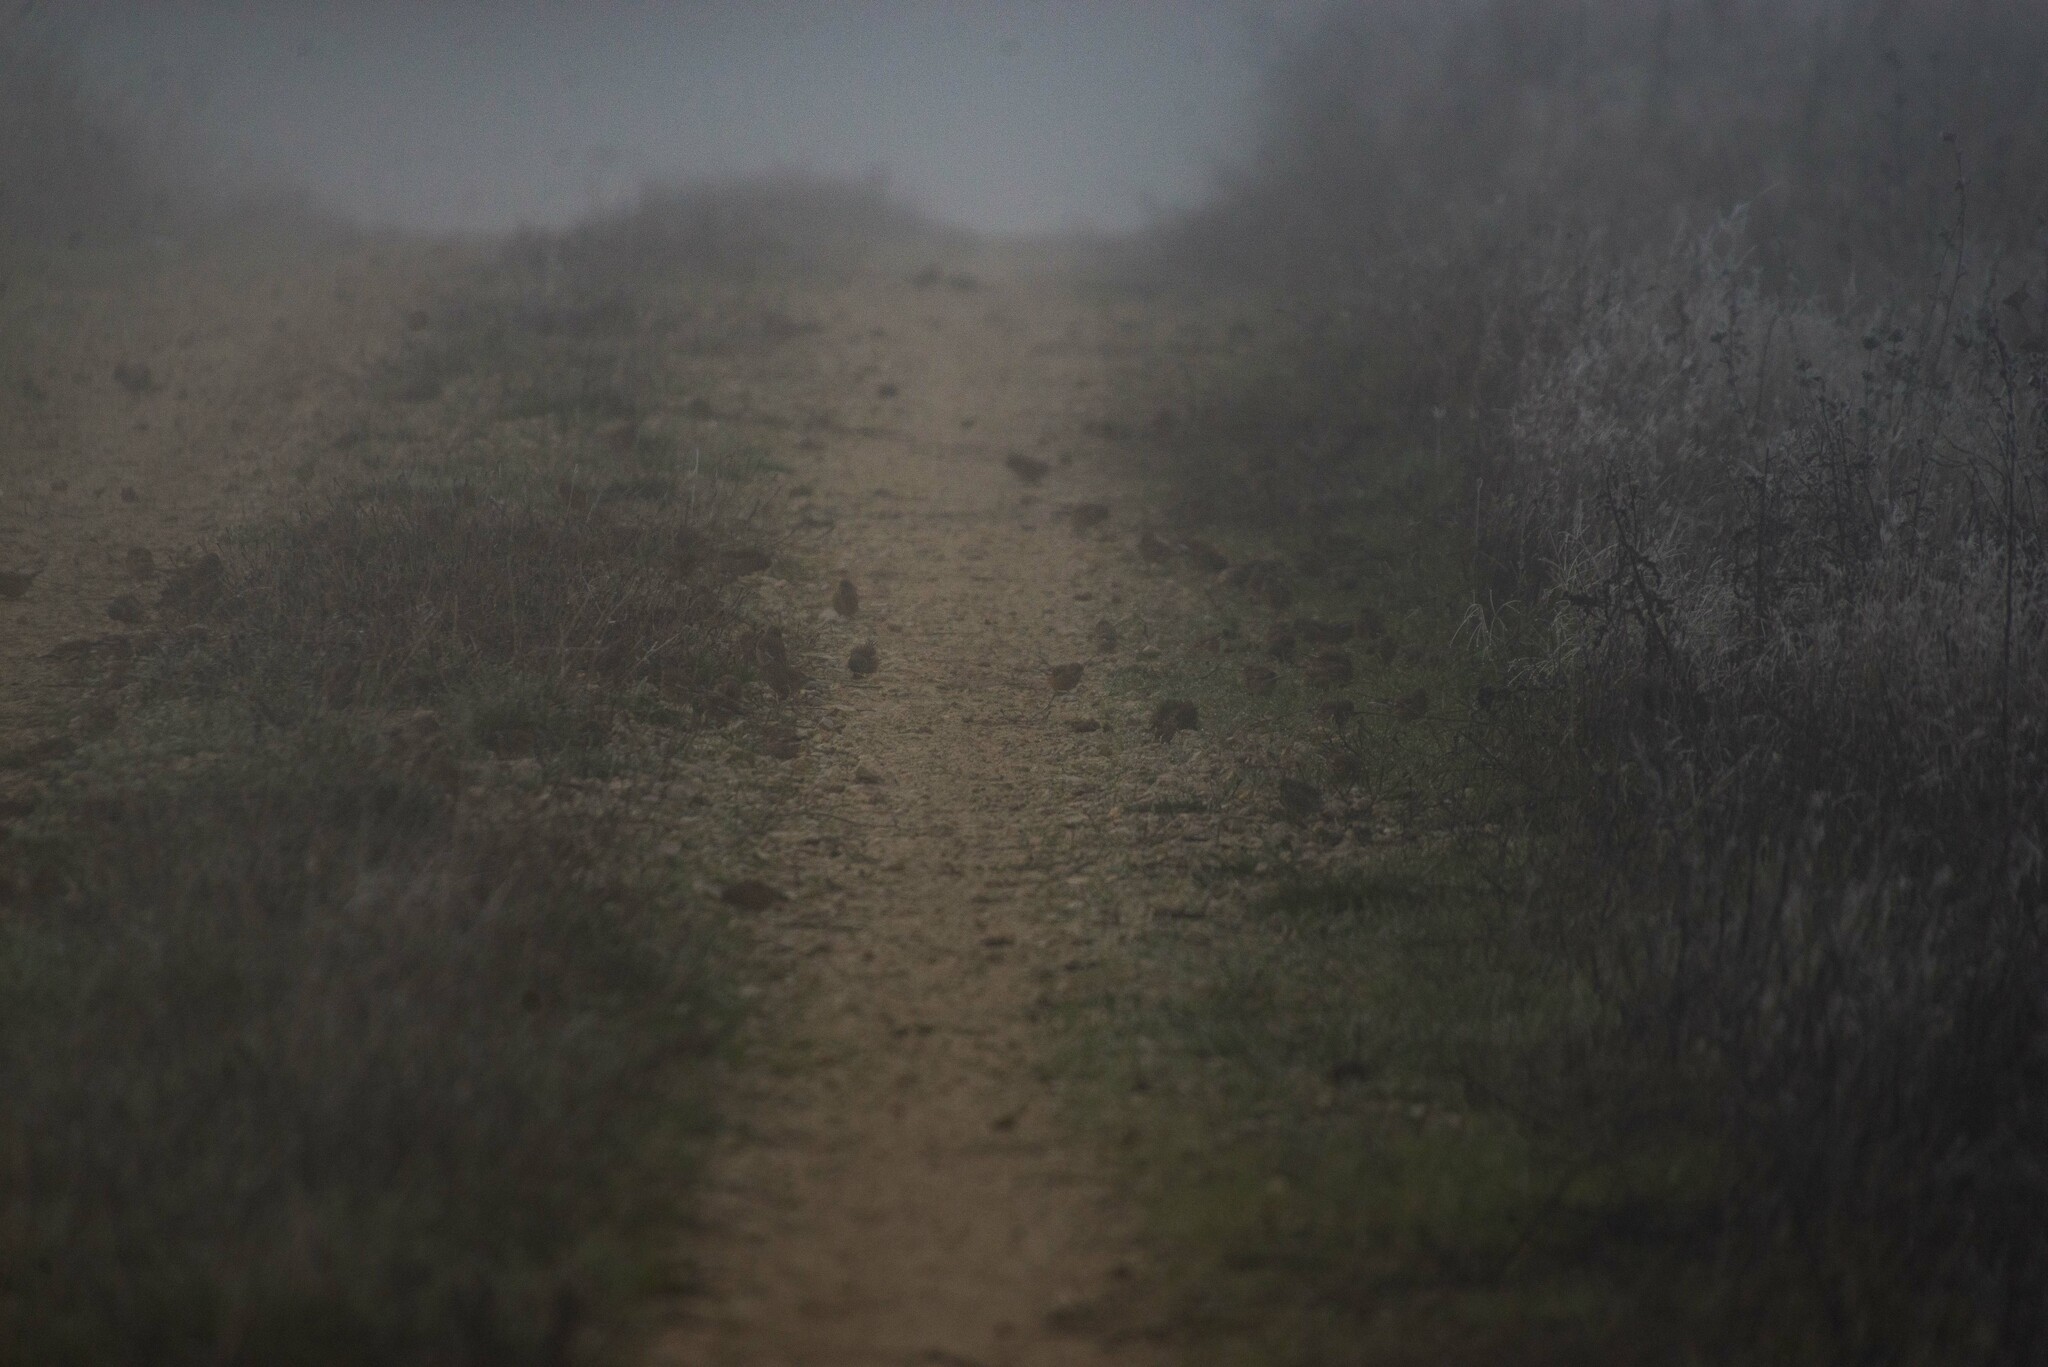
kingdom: Animalia
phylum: Chordata
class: Aves
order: Passeriformes
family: Fringillidae
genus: Linaria
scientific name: Linaria cannabina
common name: Common linnet
